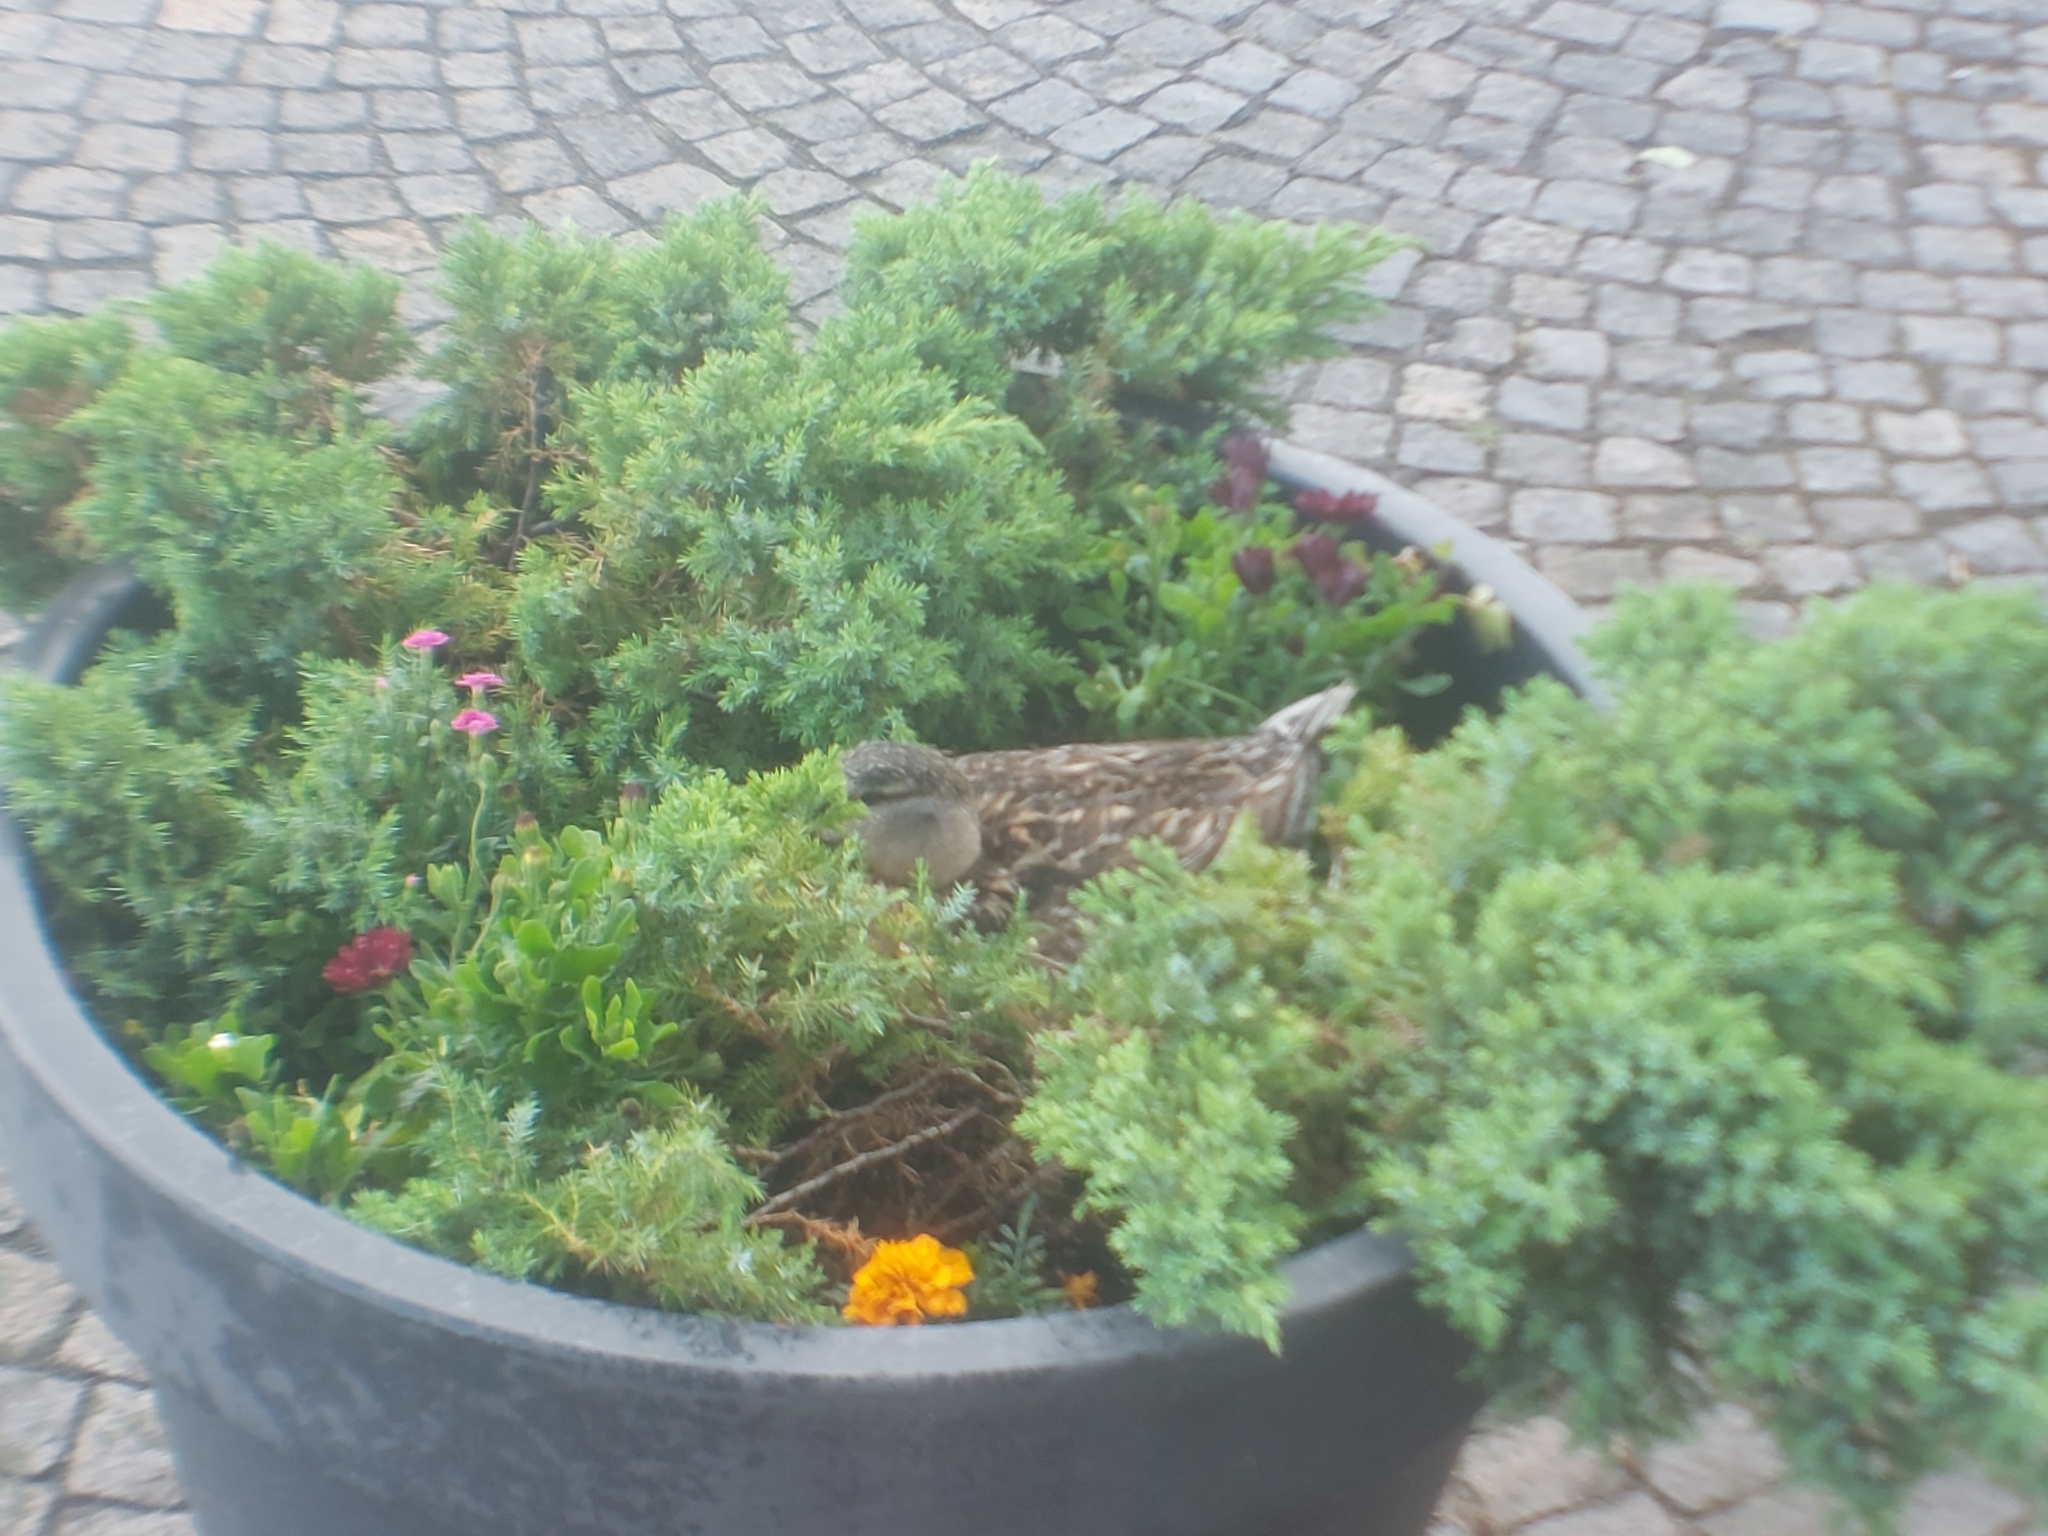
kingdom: Animalia
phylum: Chordata
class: Aves
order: Anseriformes
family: Anatidae
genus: Anas
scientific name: Anas platyrhynchos
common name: Mallard
